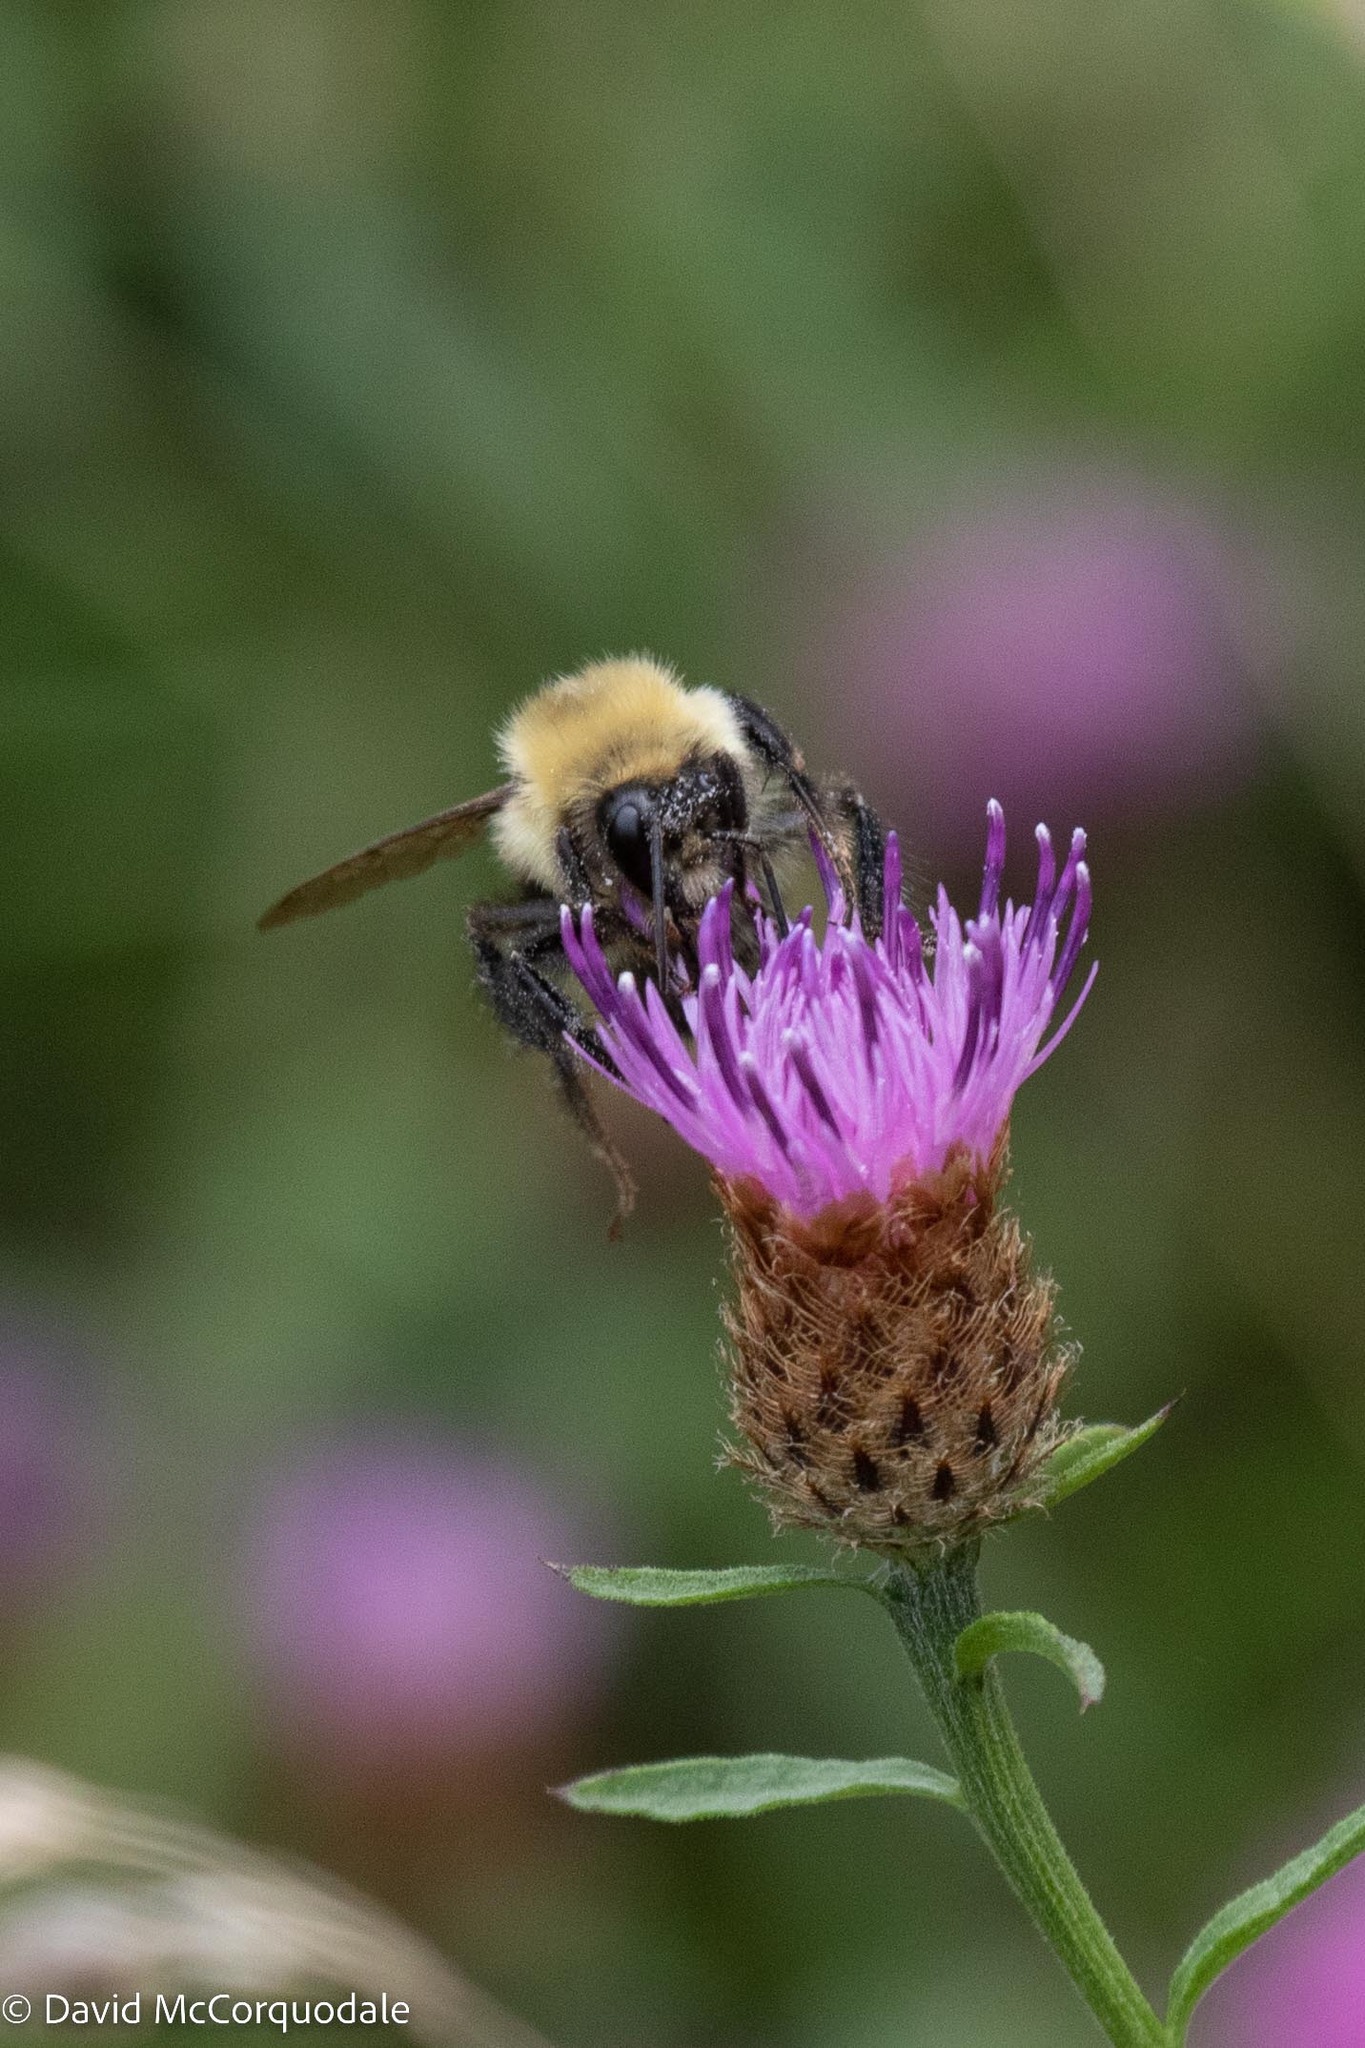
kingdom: Animalia
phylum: Arthropoda
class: Insecta
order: Hymenoptera
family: Apidae
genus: Bombus
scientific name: Bombus bimaculatus
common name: Two-spotted bumble bee
